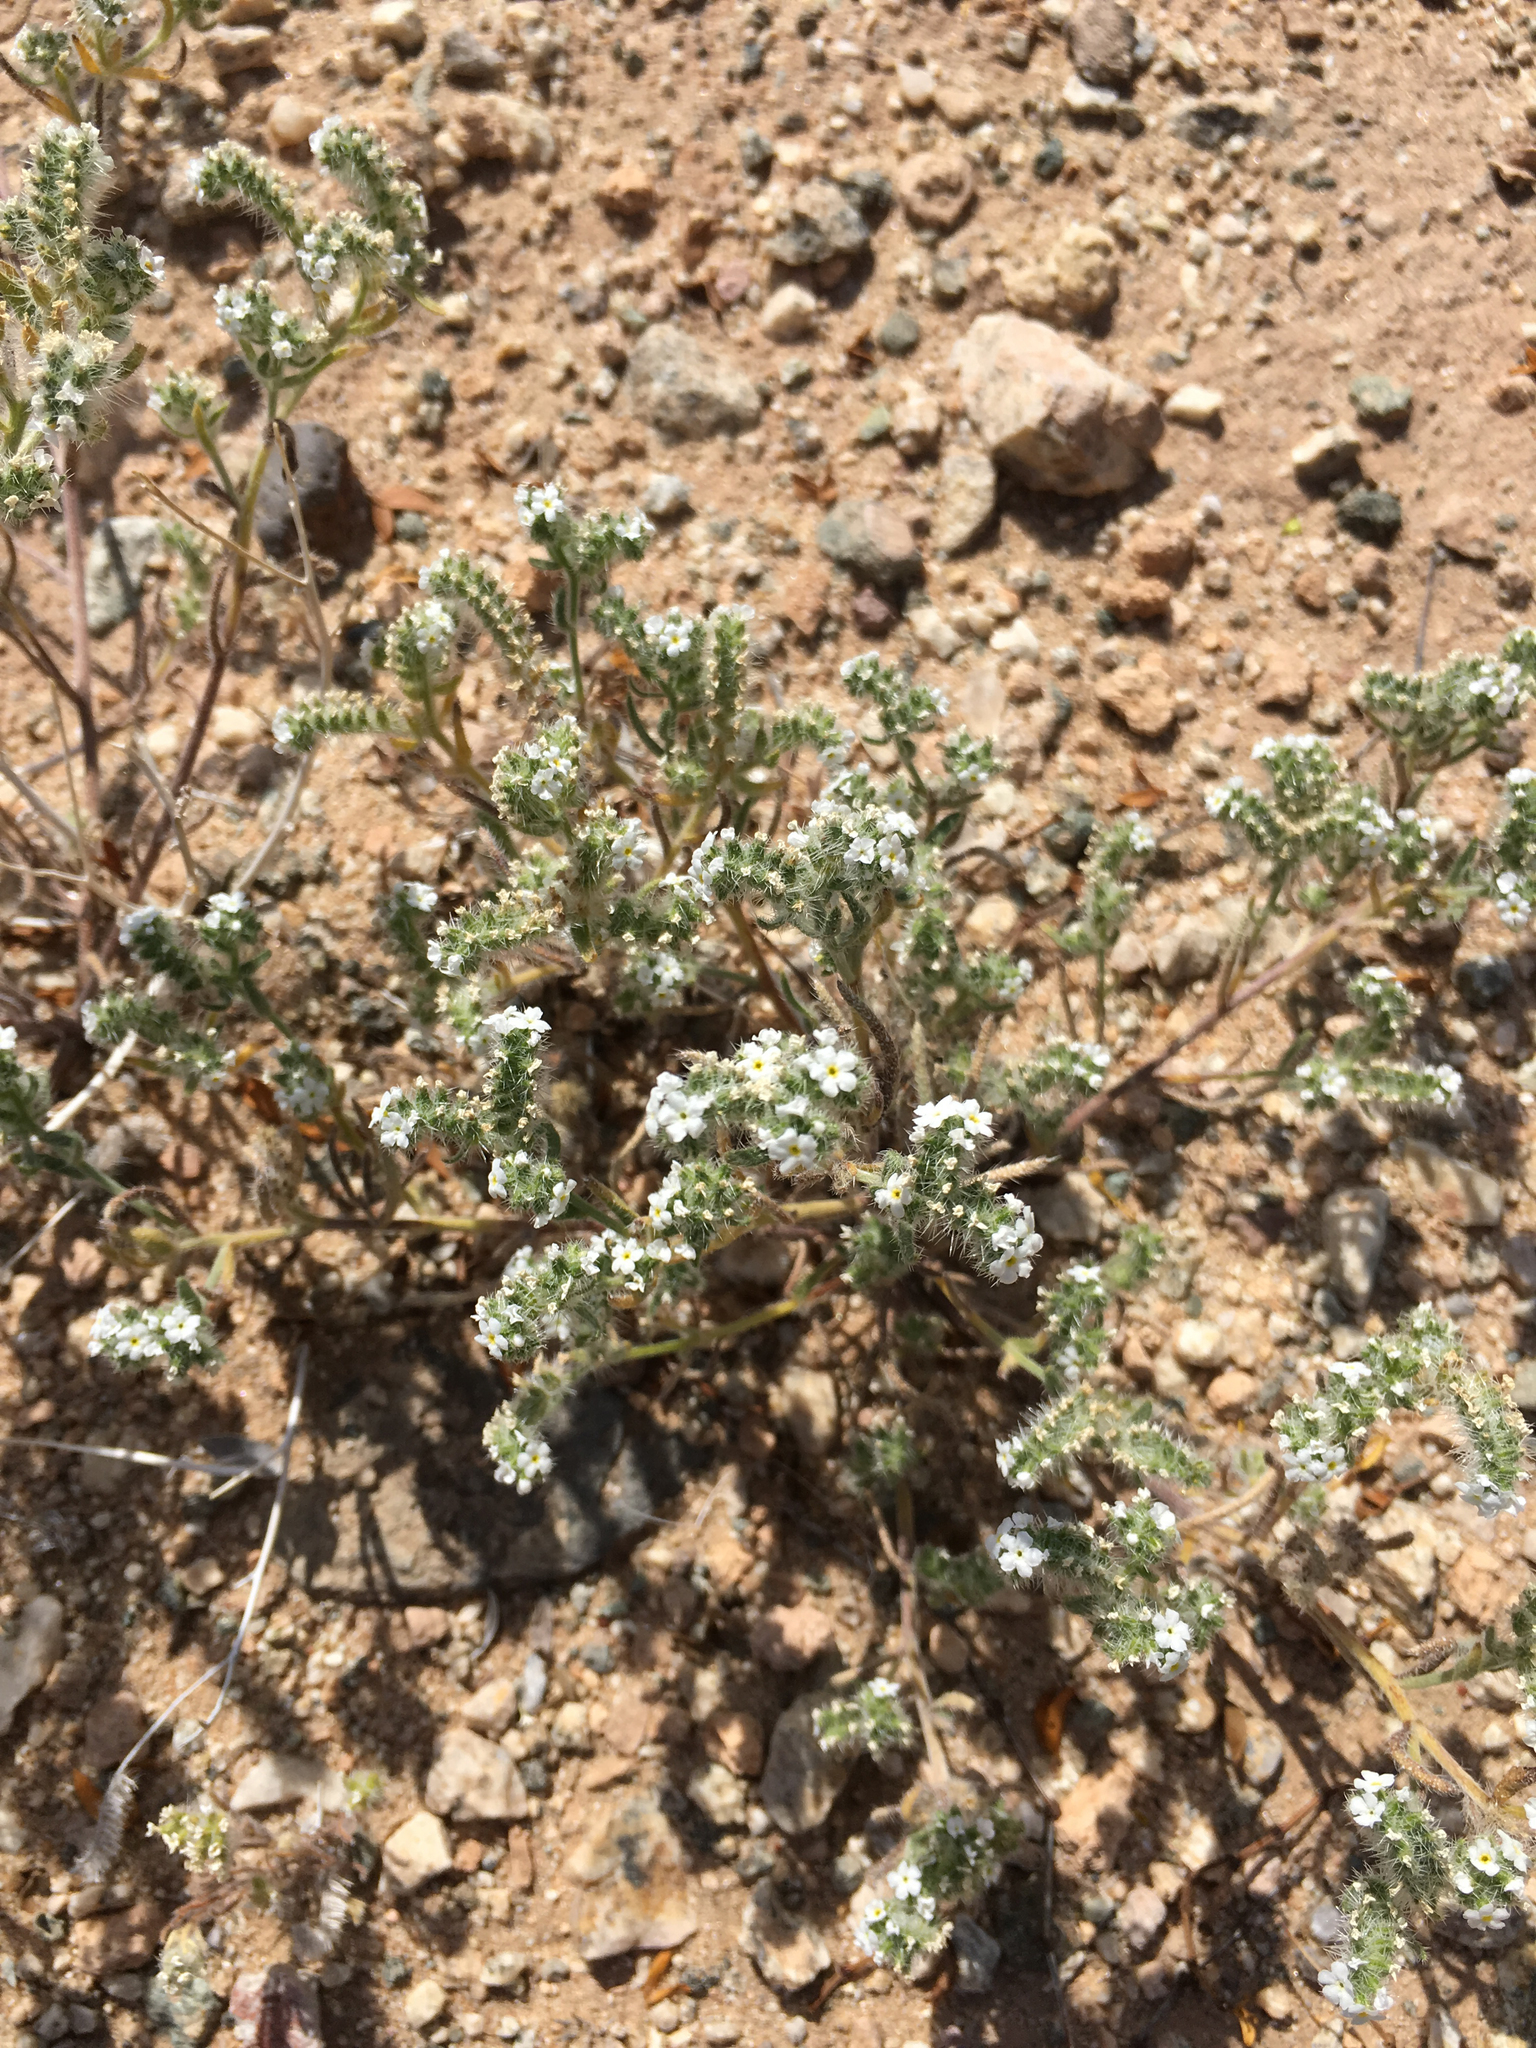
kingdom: Plantae
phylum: Tracheophyta
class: Magnoliopsida
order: Boraginales
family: Boraginaceae
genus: Johnstonella
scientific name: Johnstonella angustifolia
